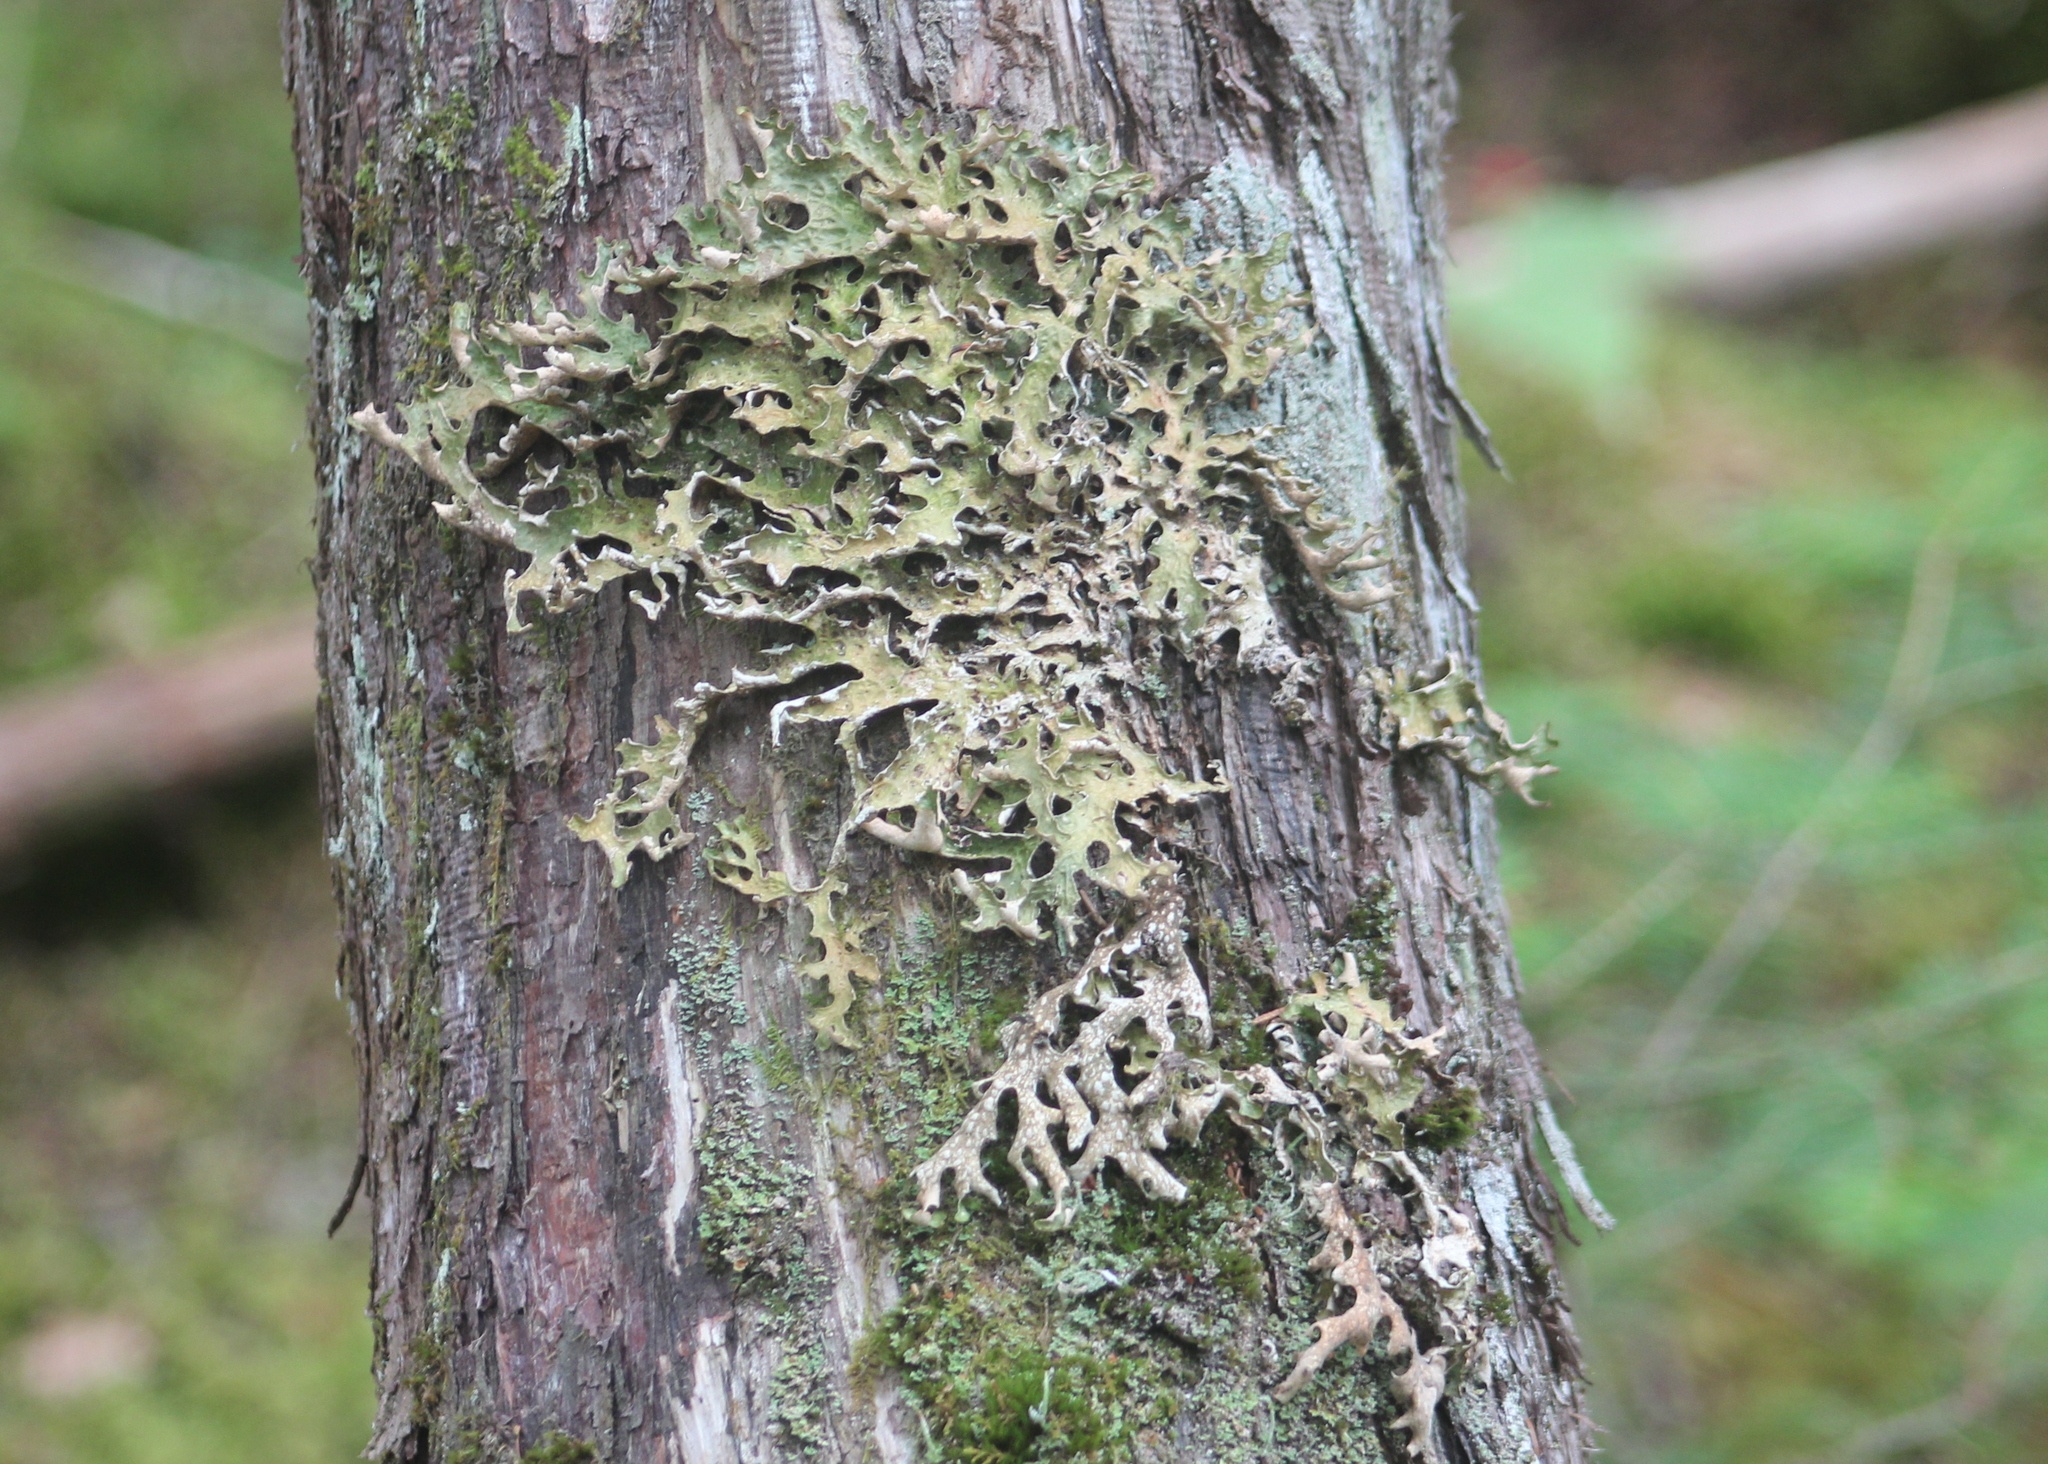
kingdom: Fungi
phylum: Ascomycota
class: Lecanoromycetes
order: Peltigerales
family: Lobariaceae
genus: Lobaria
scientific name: Lobaria pulmonaria
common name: Lungwort
